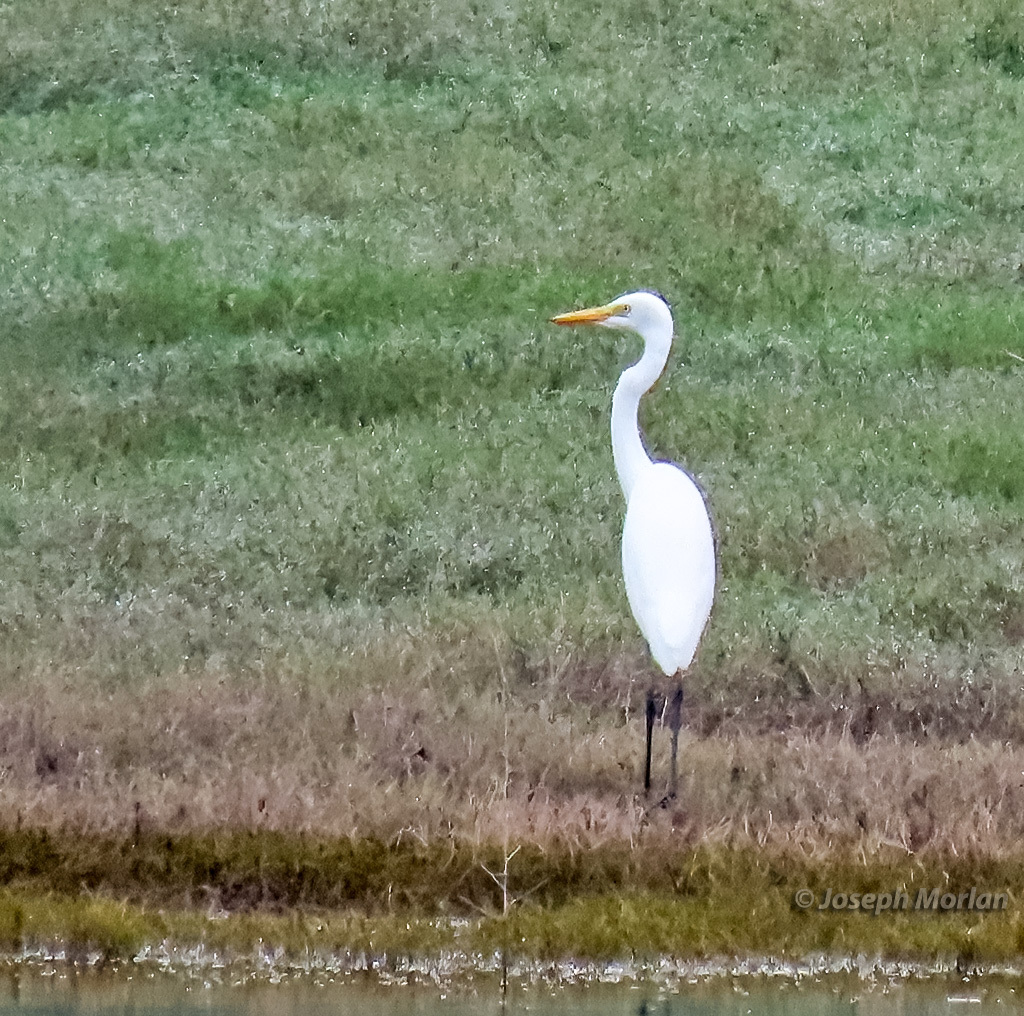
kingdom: Animalia
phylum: Chordata
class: Aves
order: Pelecaniformes
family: Ardeidae
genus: Egretta
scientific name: Egretta intermedia
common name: Intermediate egret
